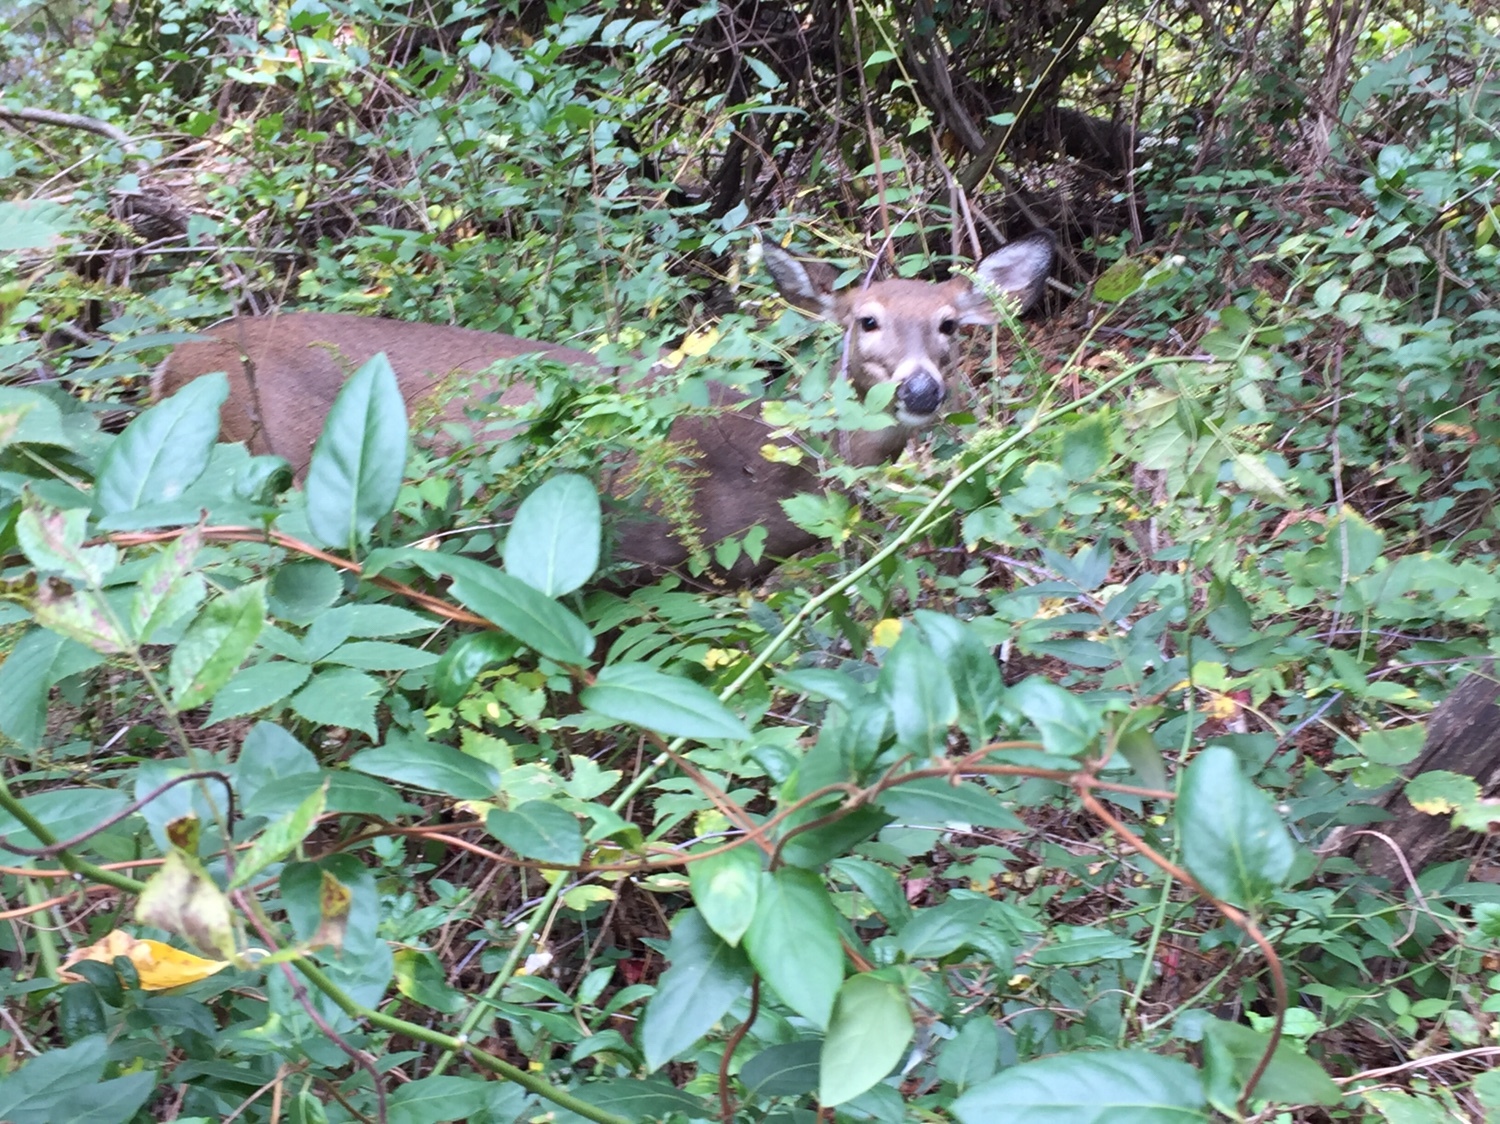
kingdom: Animalia
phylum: Chordata
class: Mammalia
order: Artiodactyla
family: Cervidae
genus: Odocoileus
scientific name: Odocoileus virginianus
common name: White-tailed deer
